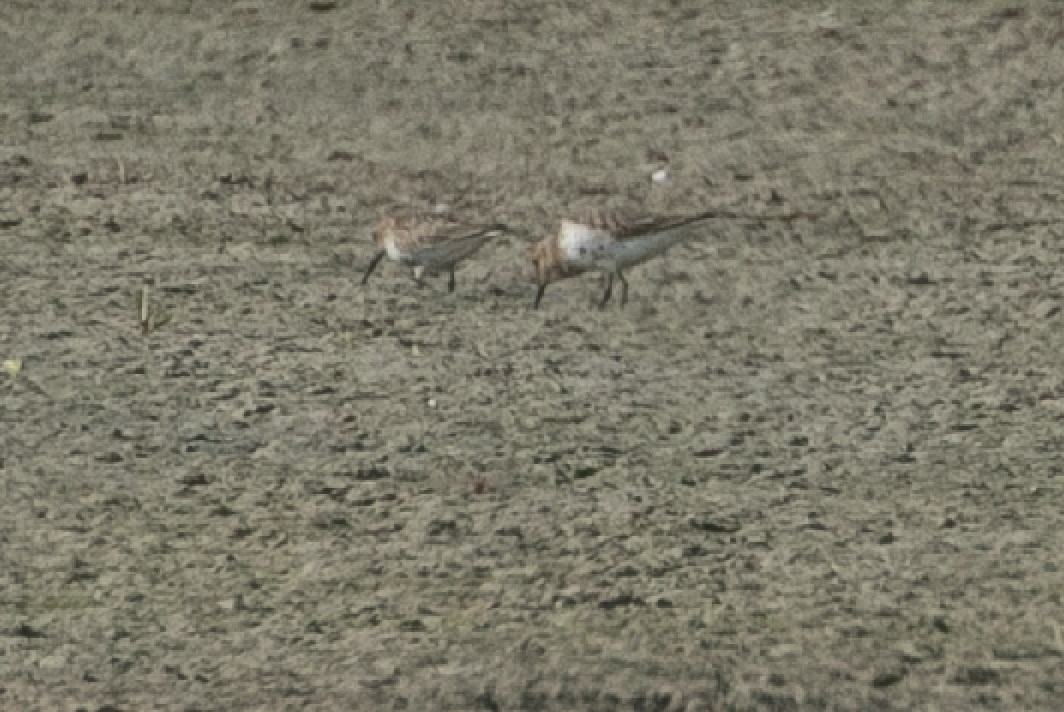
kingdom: Animalia
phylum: Chordata
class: Aves
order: Charadriiformes
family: Scolopacidae
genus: Calidris
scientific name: Calidris alpina
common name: Dunlin
